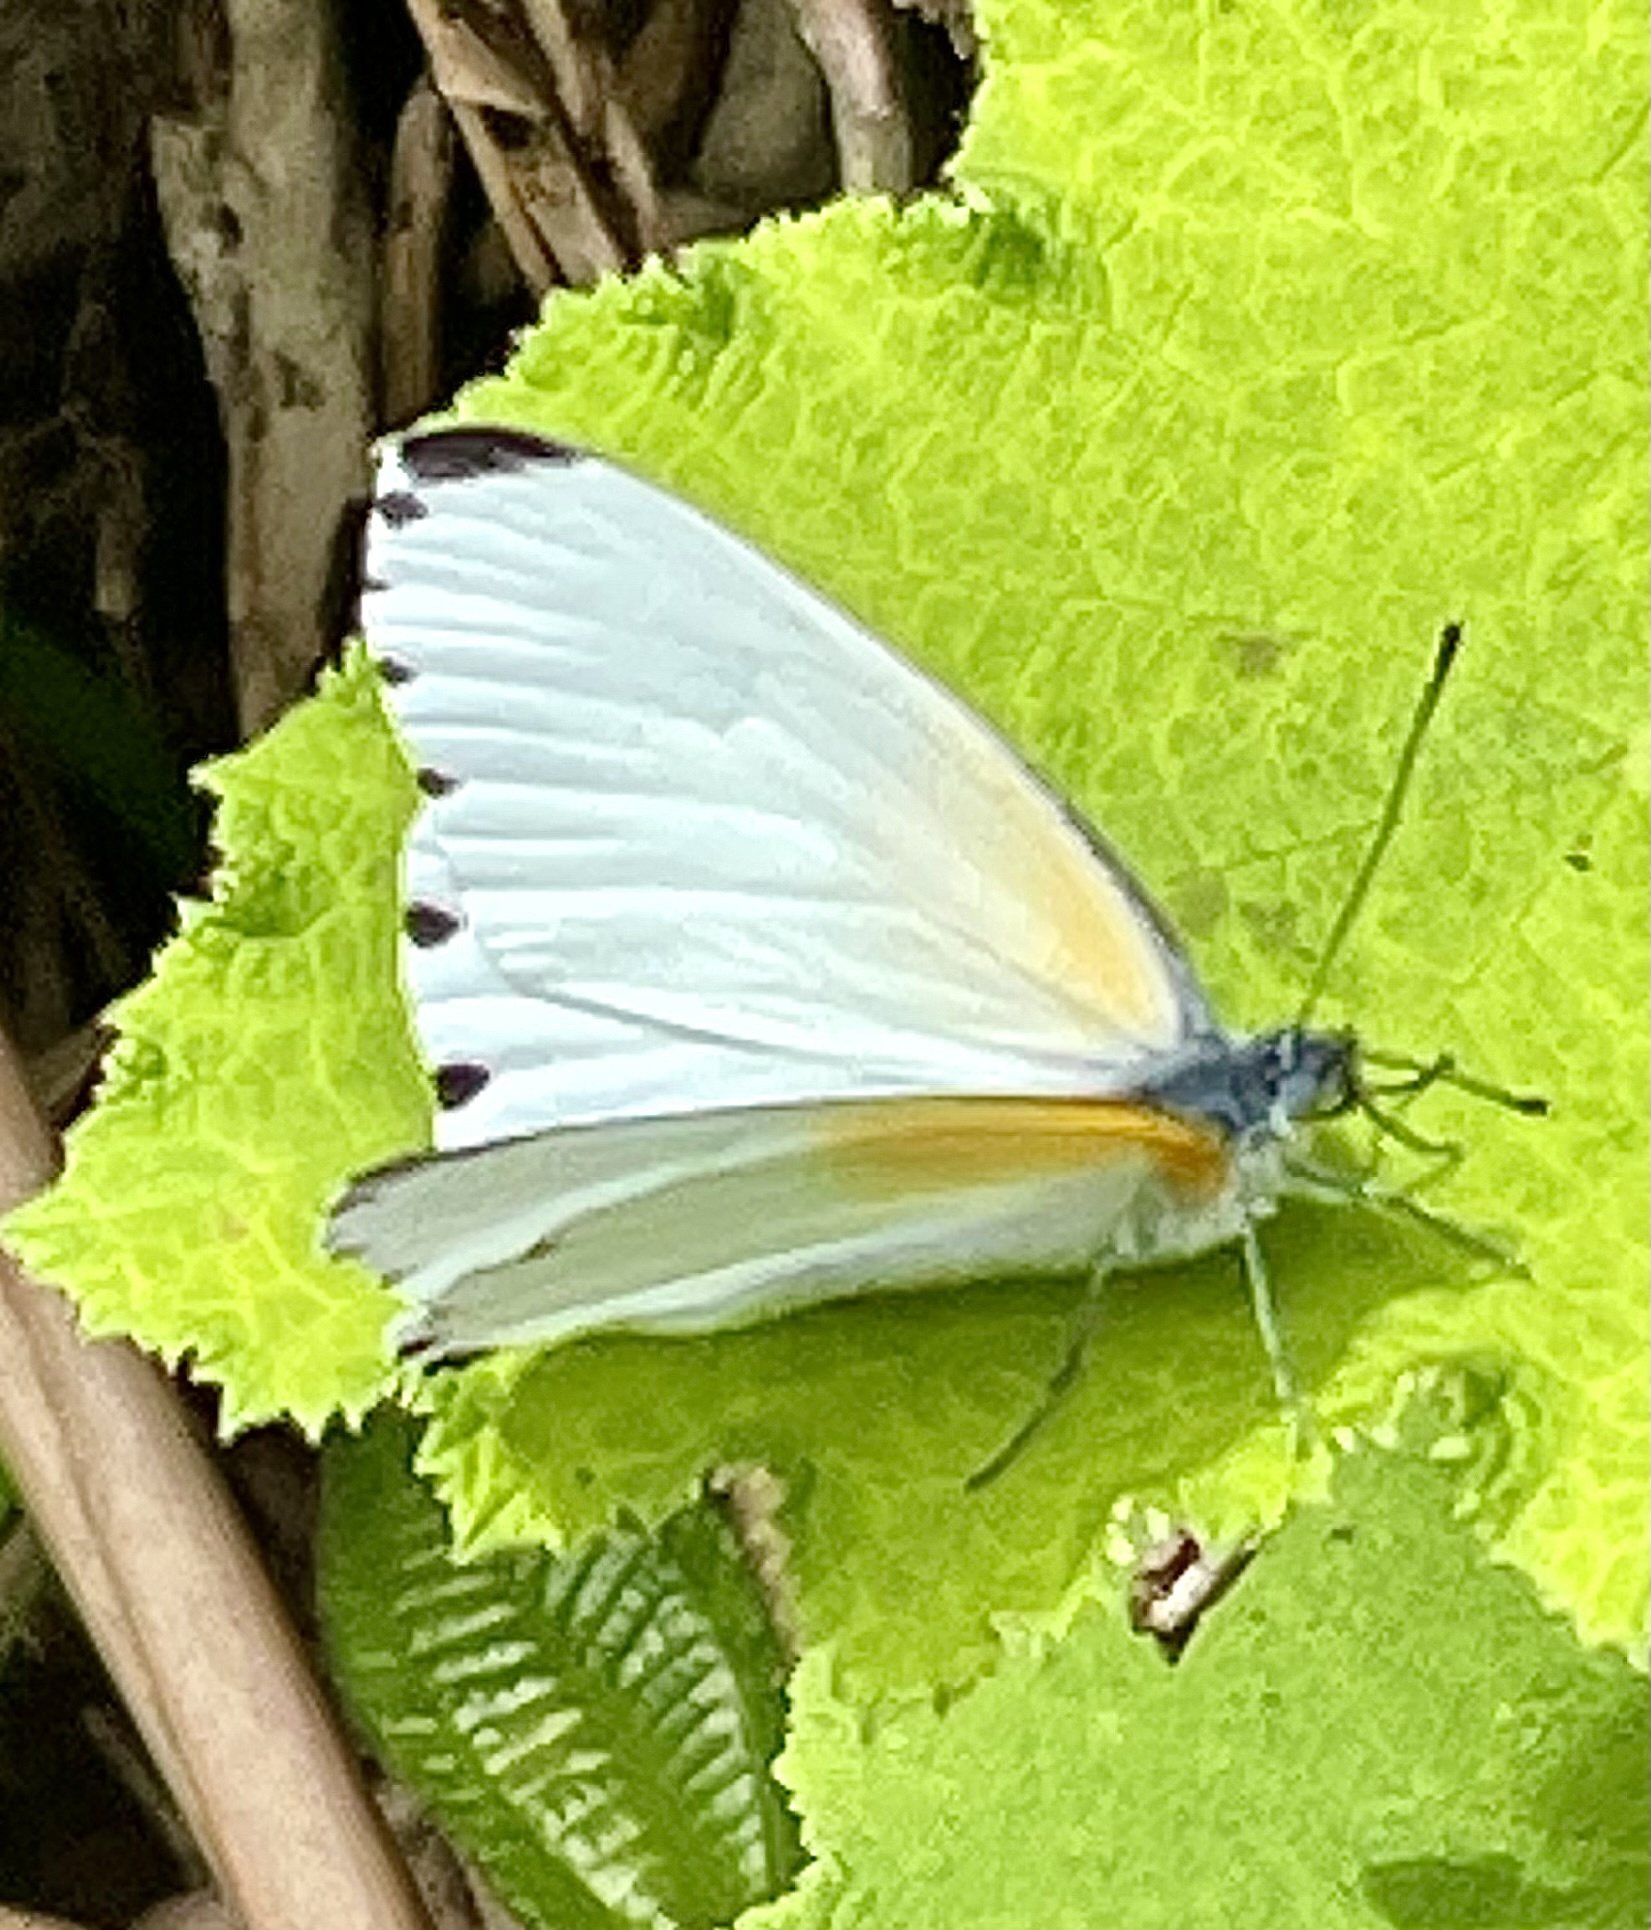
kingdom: Animalia
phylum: Arthropoda
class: Insecta
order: Lepidoptera
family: Pieridae
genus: Mylothris
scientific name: Mylothris phileris
